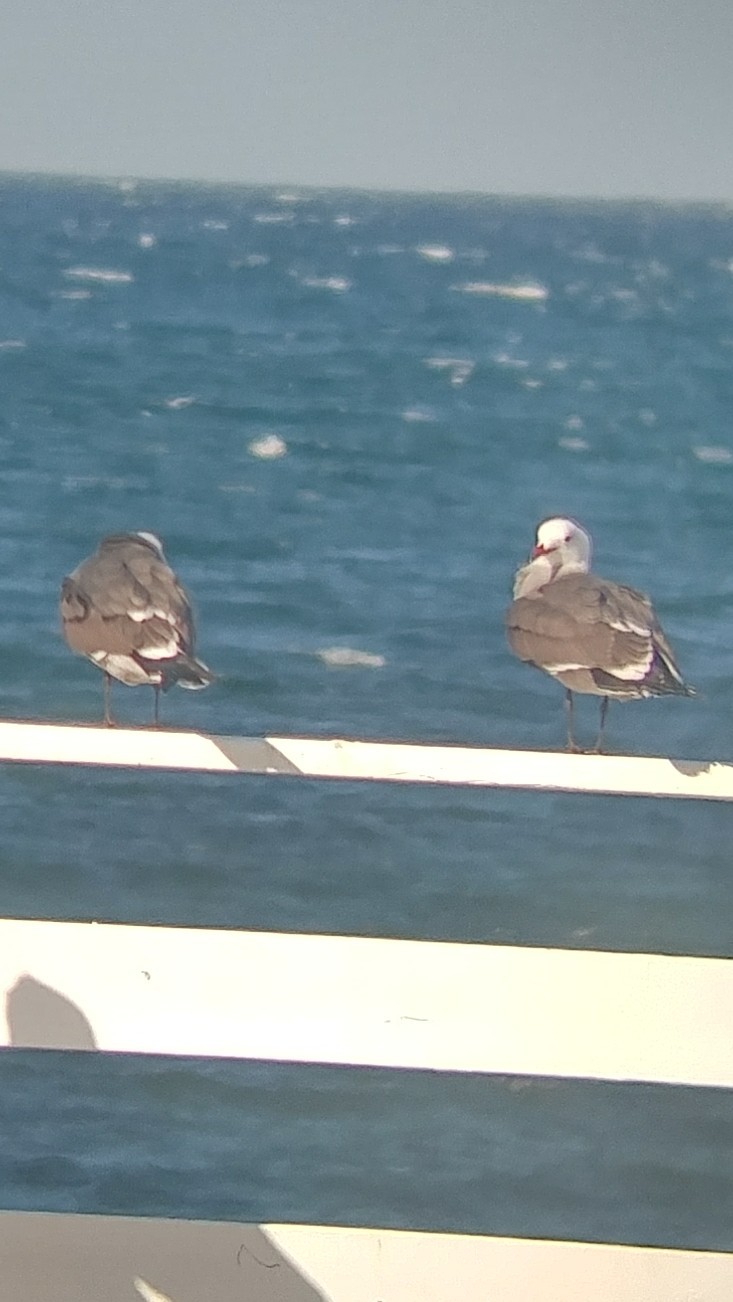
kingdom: Animalia
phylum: Chordata
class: Aves
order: Charadriiformes
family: Laridae
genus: Larus
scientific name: Larus heermanni
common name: Heermann's gull
